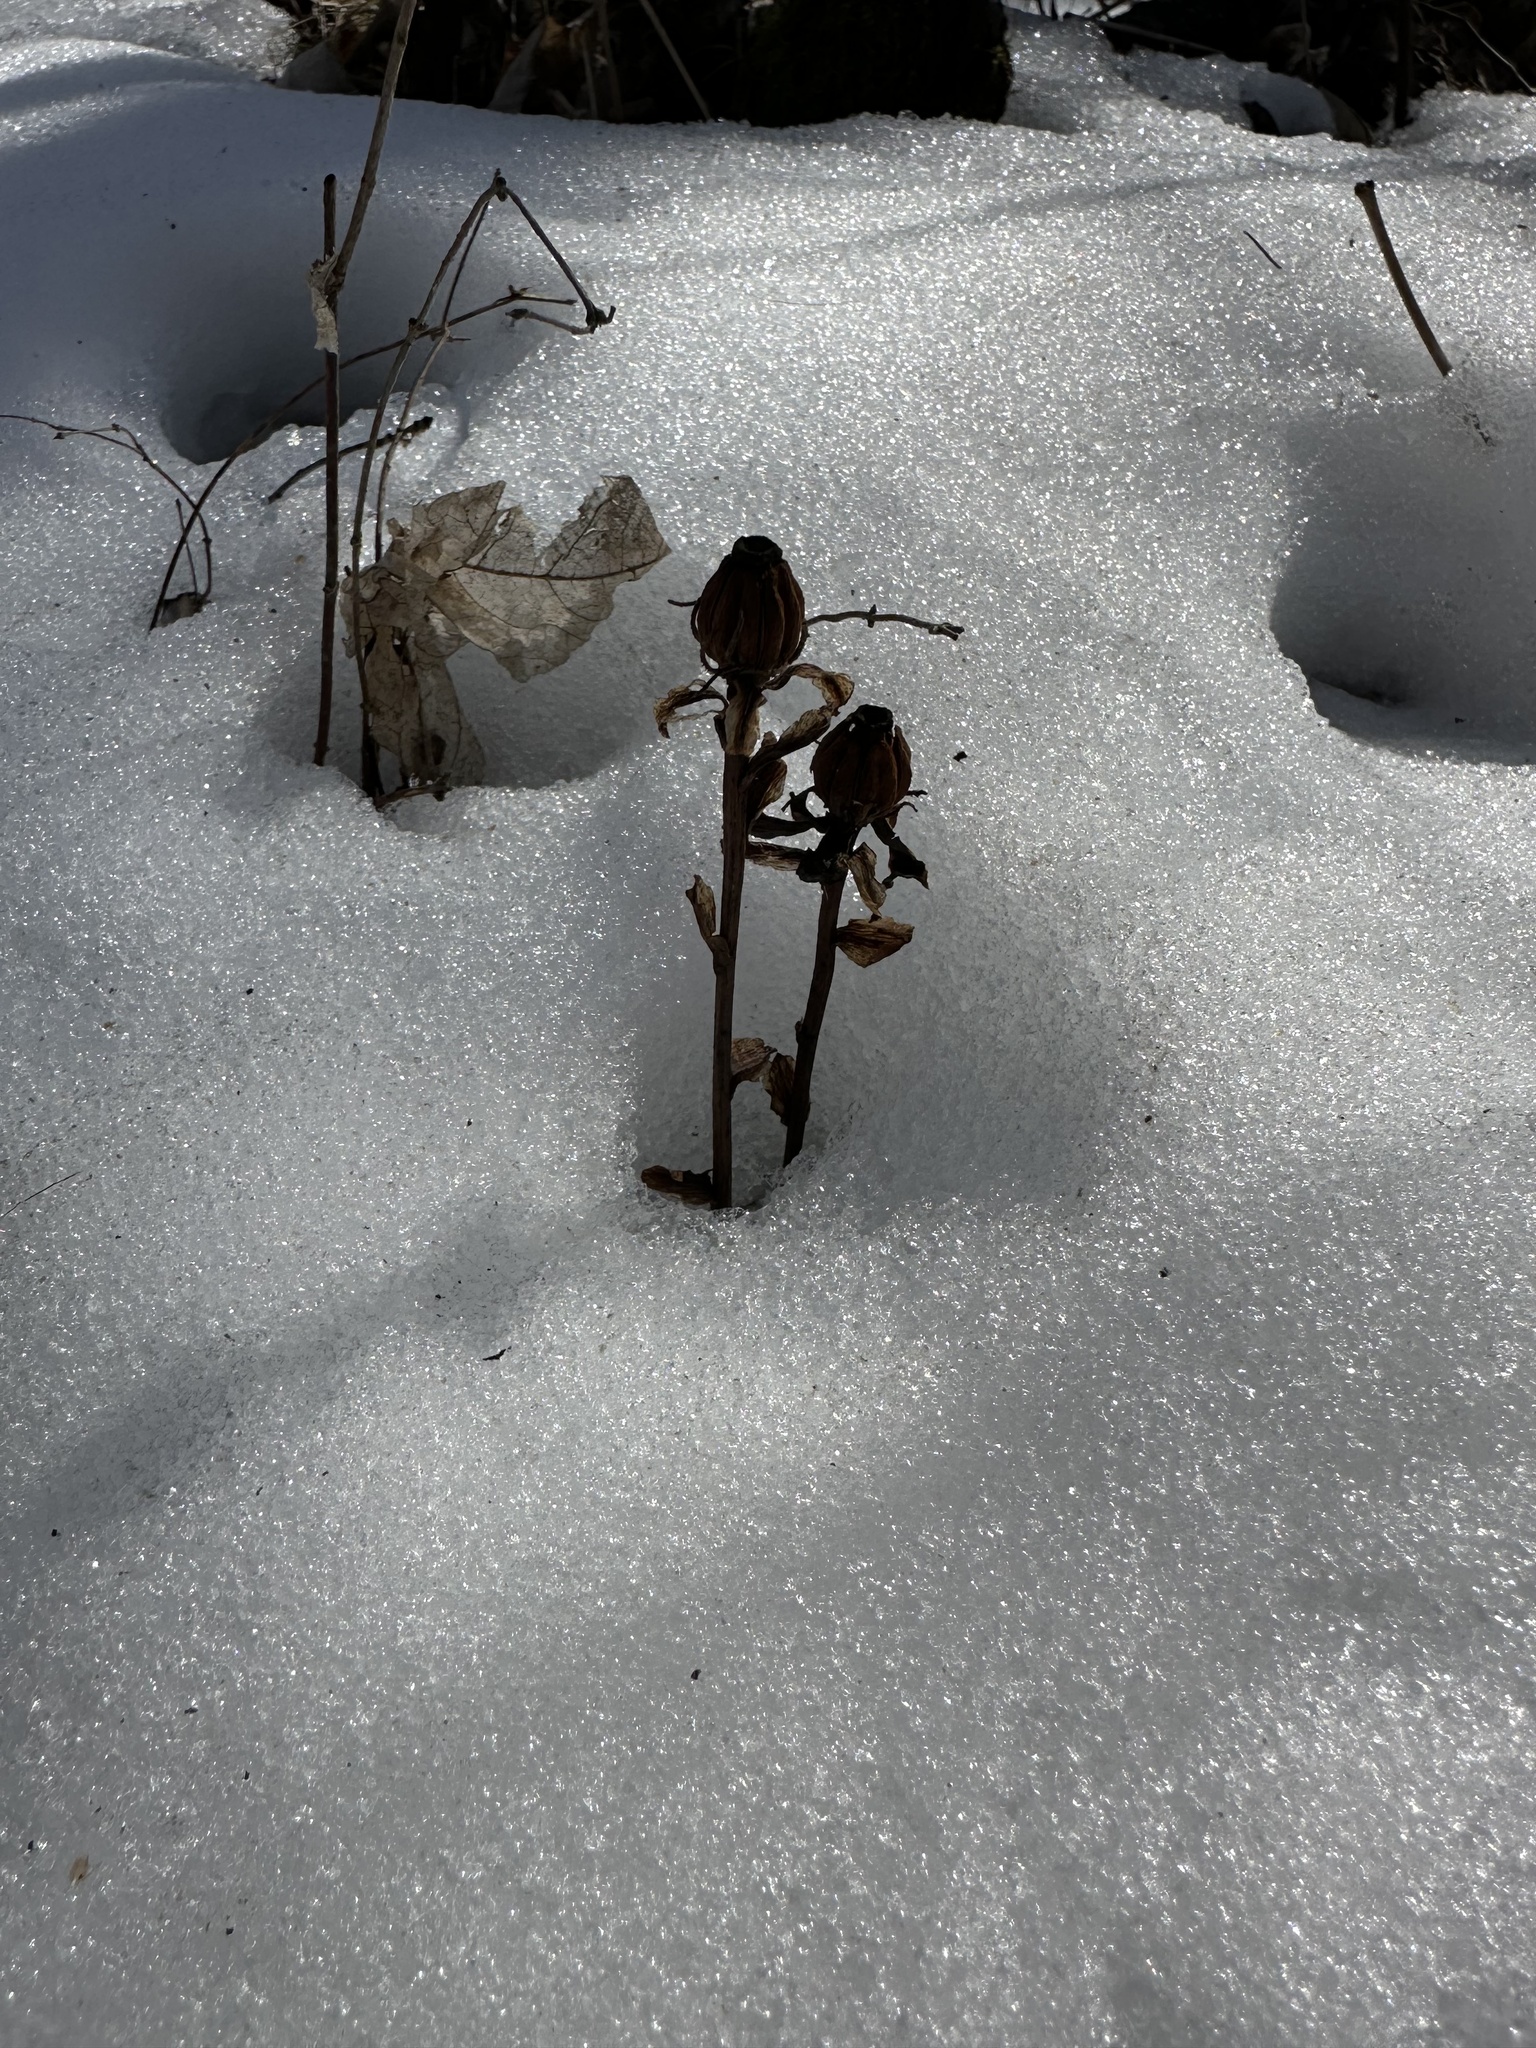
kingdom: Plantae
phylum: Tracheophyta
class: Magnoliopsida
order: Ericales
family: Ericaceae
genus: Monotropa
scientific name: Monotropa uniflora
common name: Convulsion root
